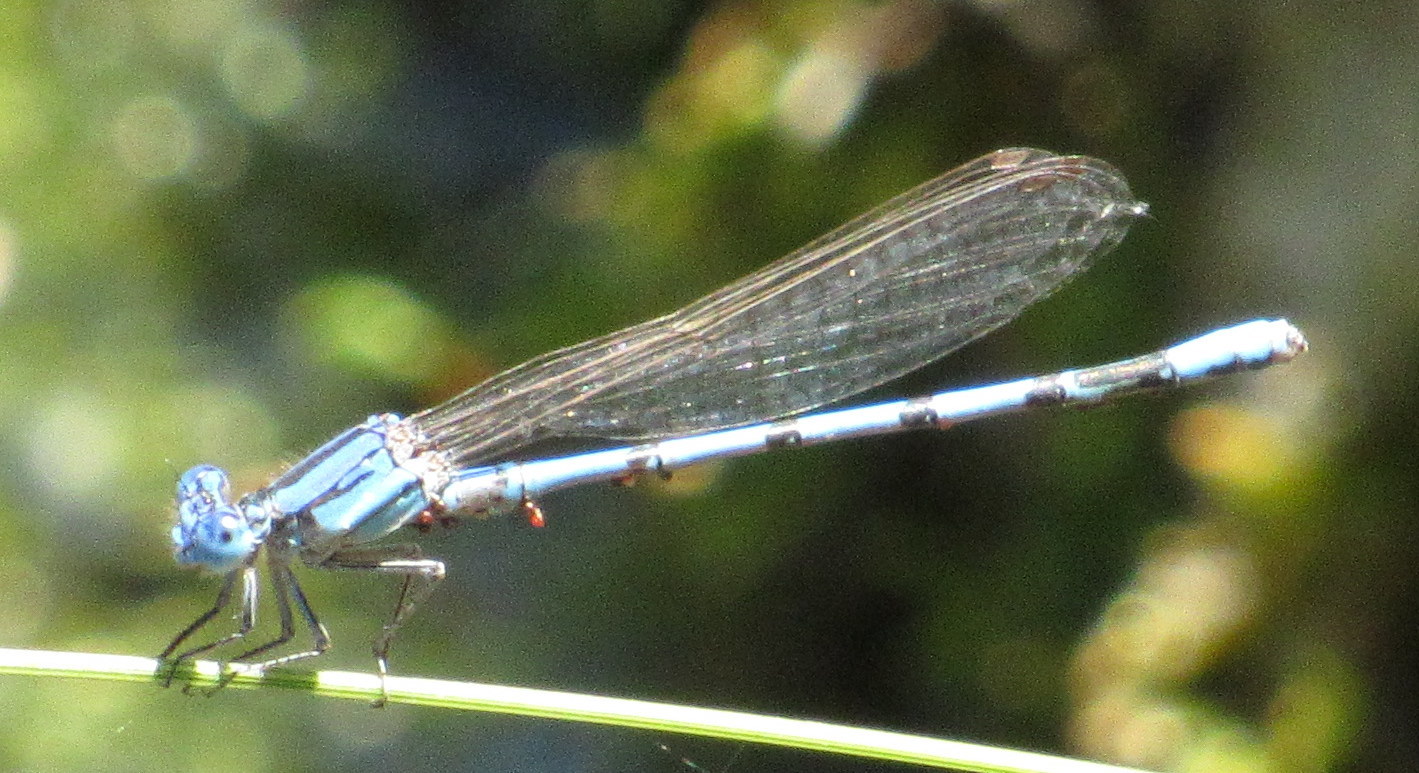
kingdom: Animalia
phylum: Arthropoda
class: Insecta
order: Odonata
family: Coenagrionidae
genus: Argia
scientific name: Argia nahuana
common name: Aztec dancer
